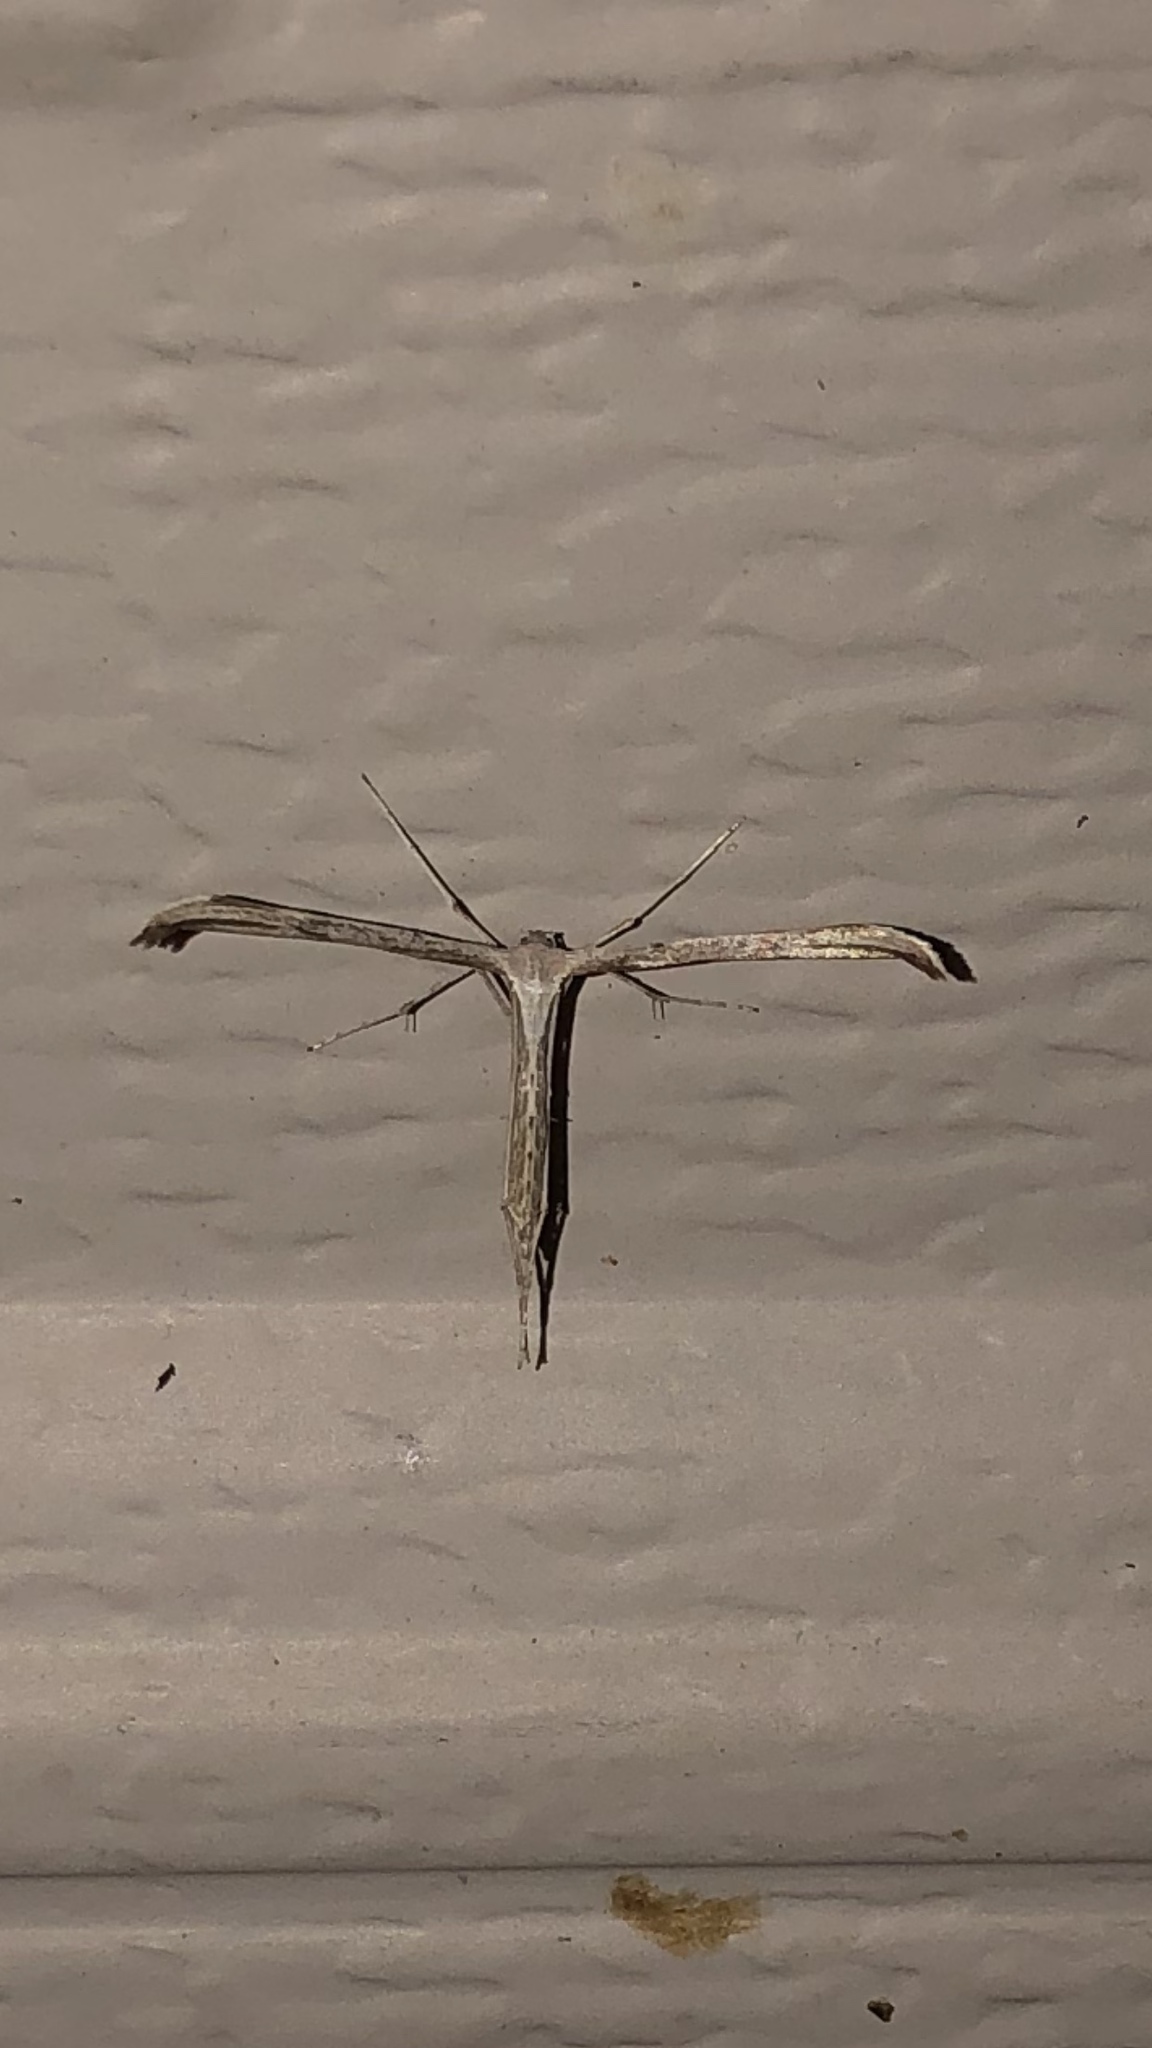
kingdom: Animalia
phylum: Arthropoda
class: Insecta
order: Lepidoptera
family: Pterophoridae
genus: Emmelina
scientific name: Emmelina monodactyla
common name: Common plume
